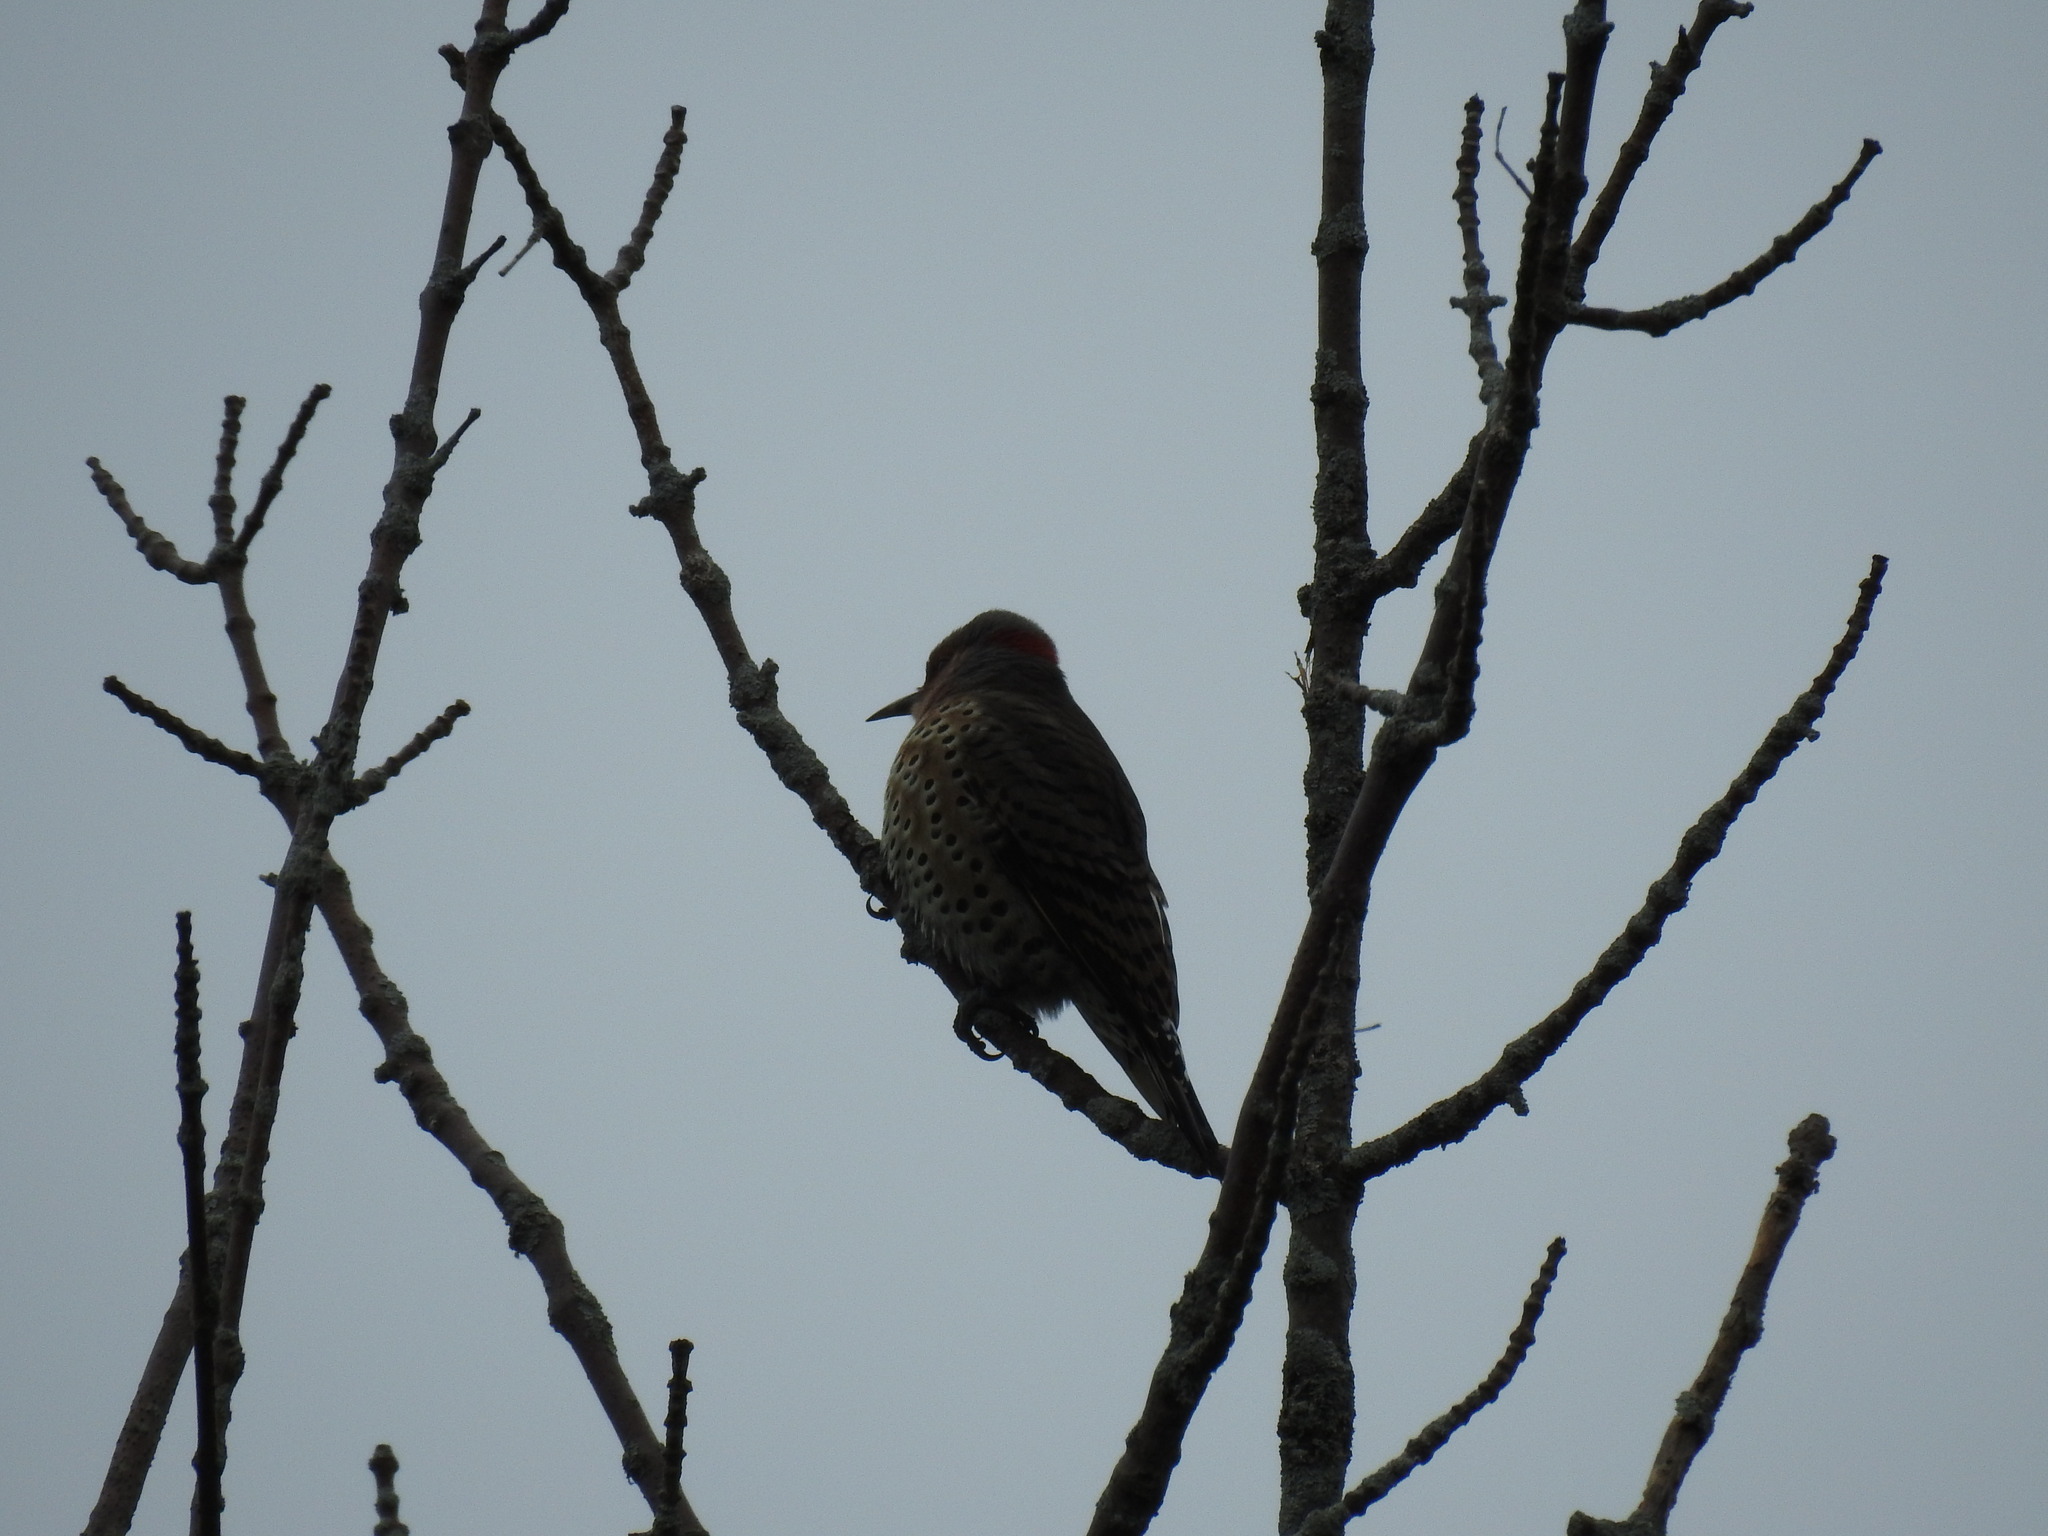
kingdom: Animalia
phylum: Chordata
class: Aves
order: Piciformes
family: Picidae
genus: Colaptes
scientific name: Colaptes auratus
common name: Northern flicker
